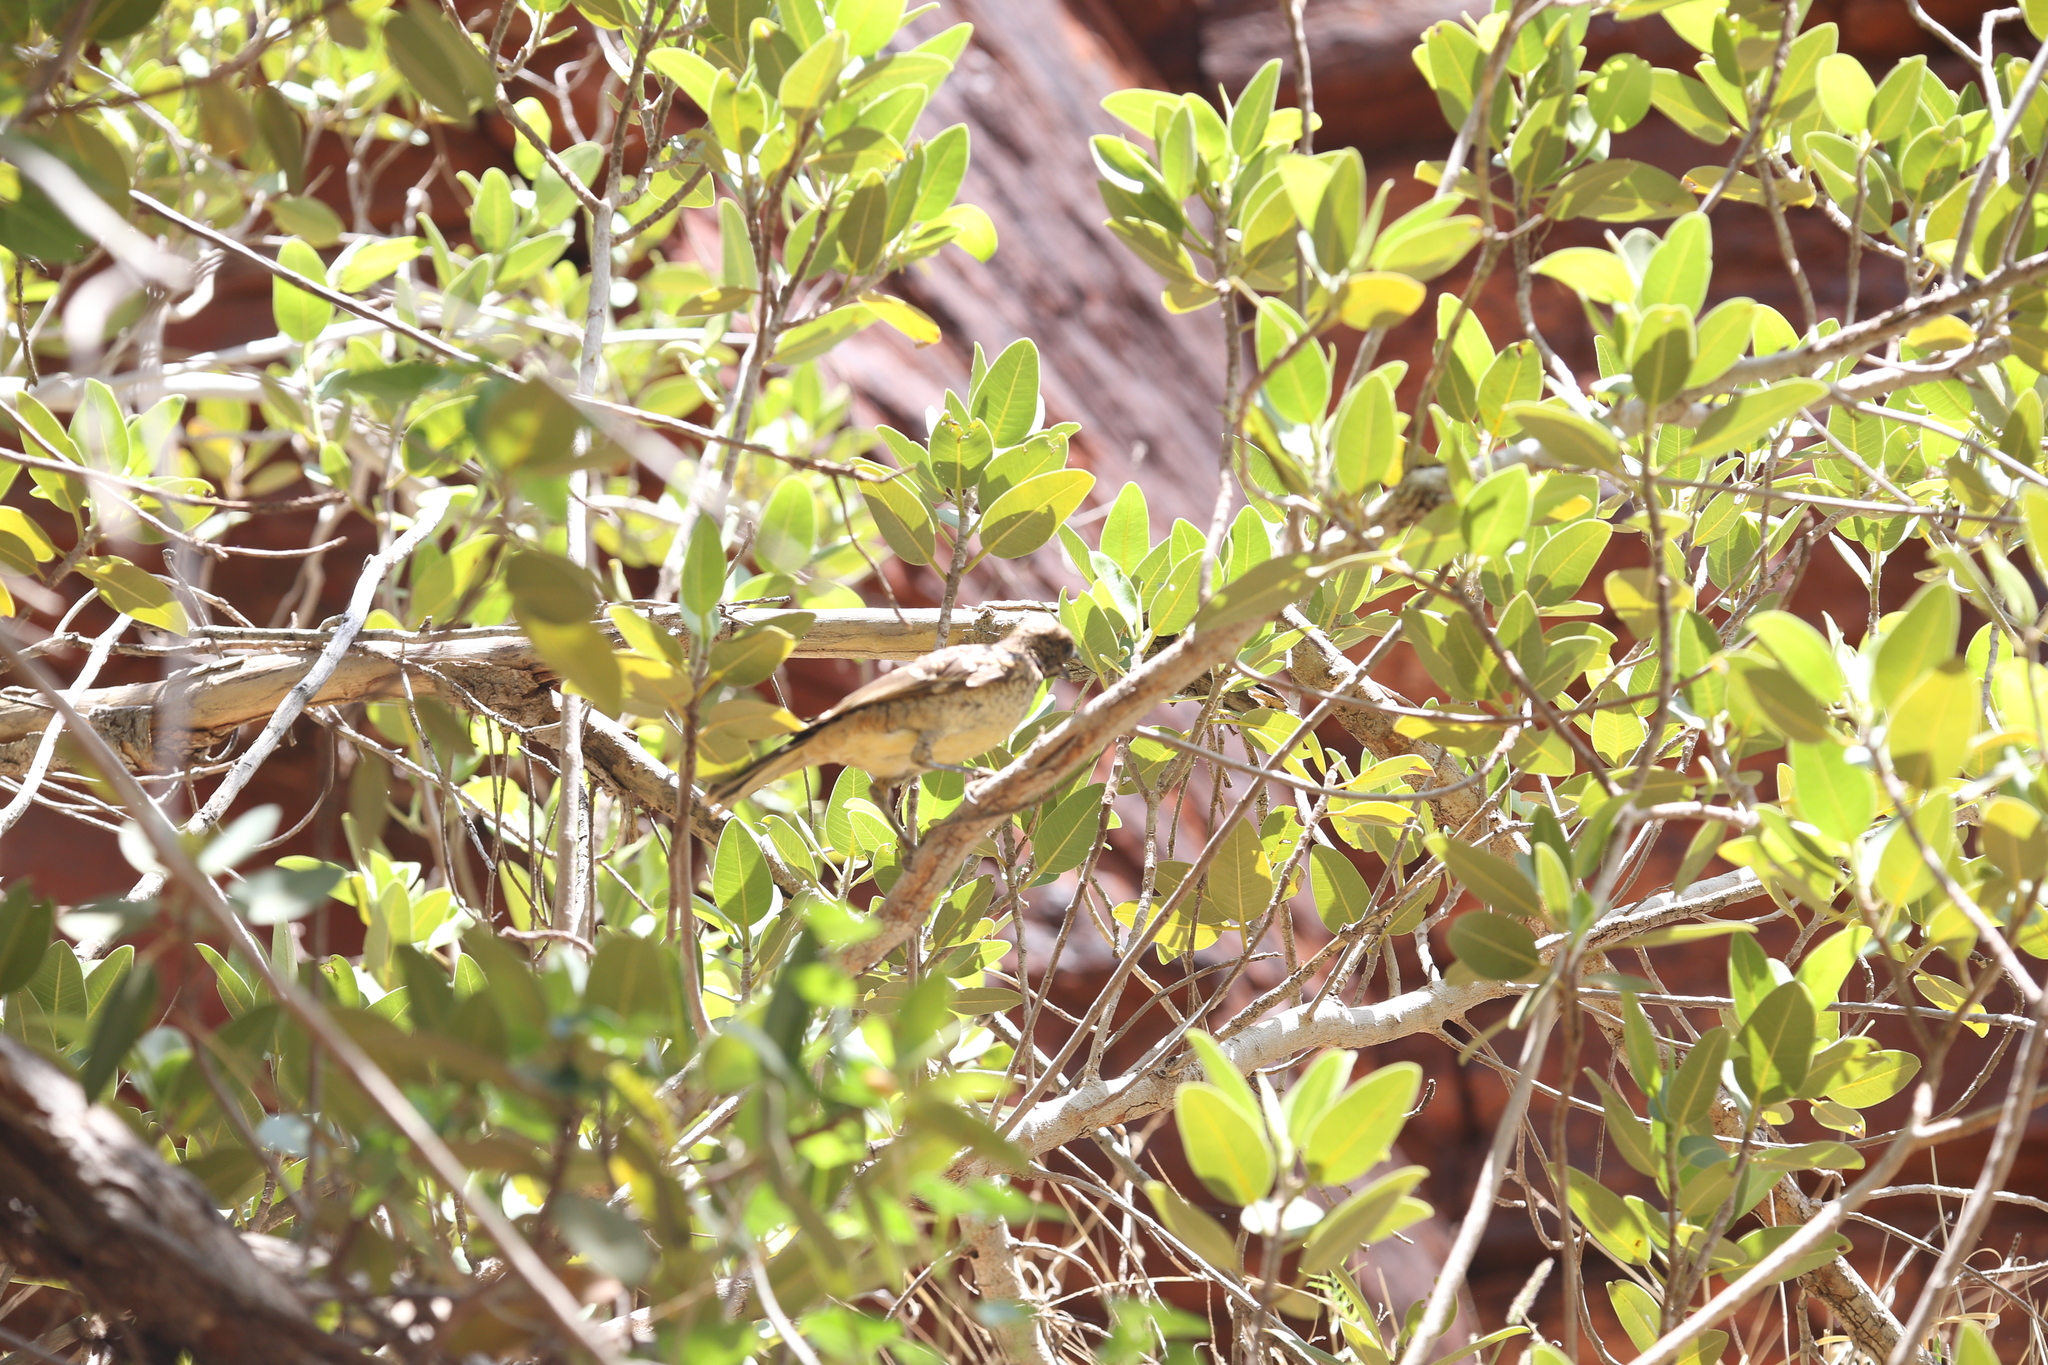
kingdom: Animalia
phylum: Chordata
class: Aves
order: Passeriformes
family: Ptilonorhynchidae
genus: Chlamydera
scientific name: Chlamydera guttata
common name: Western bowerbird
